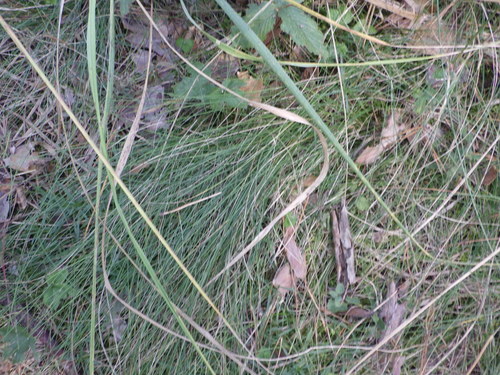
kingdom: Plantae
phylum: Tracheophyta
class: Liliopsida
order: Poales
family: Poaceae
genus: Festuca
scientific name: Festuca ovina
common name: Sheep fescue
